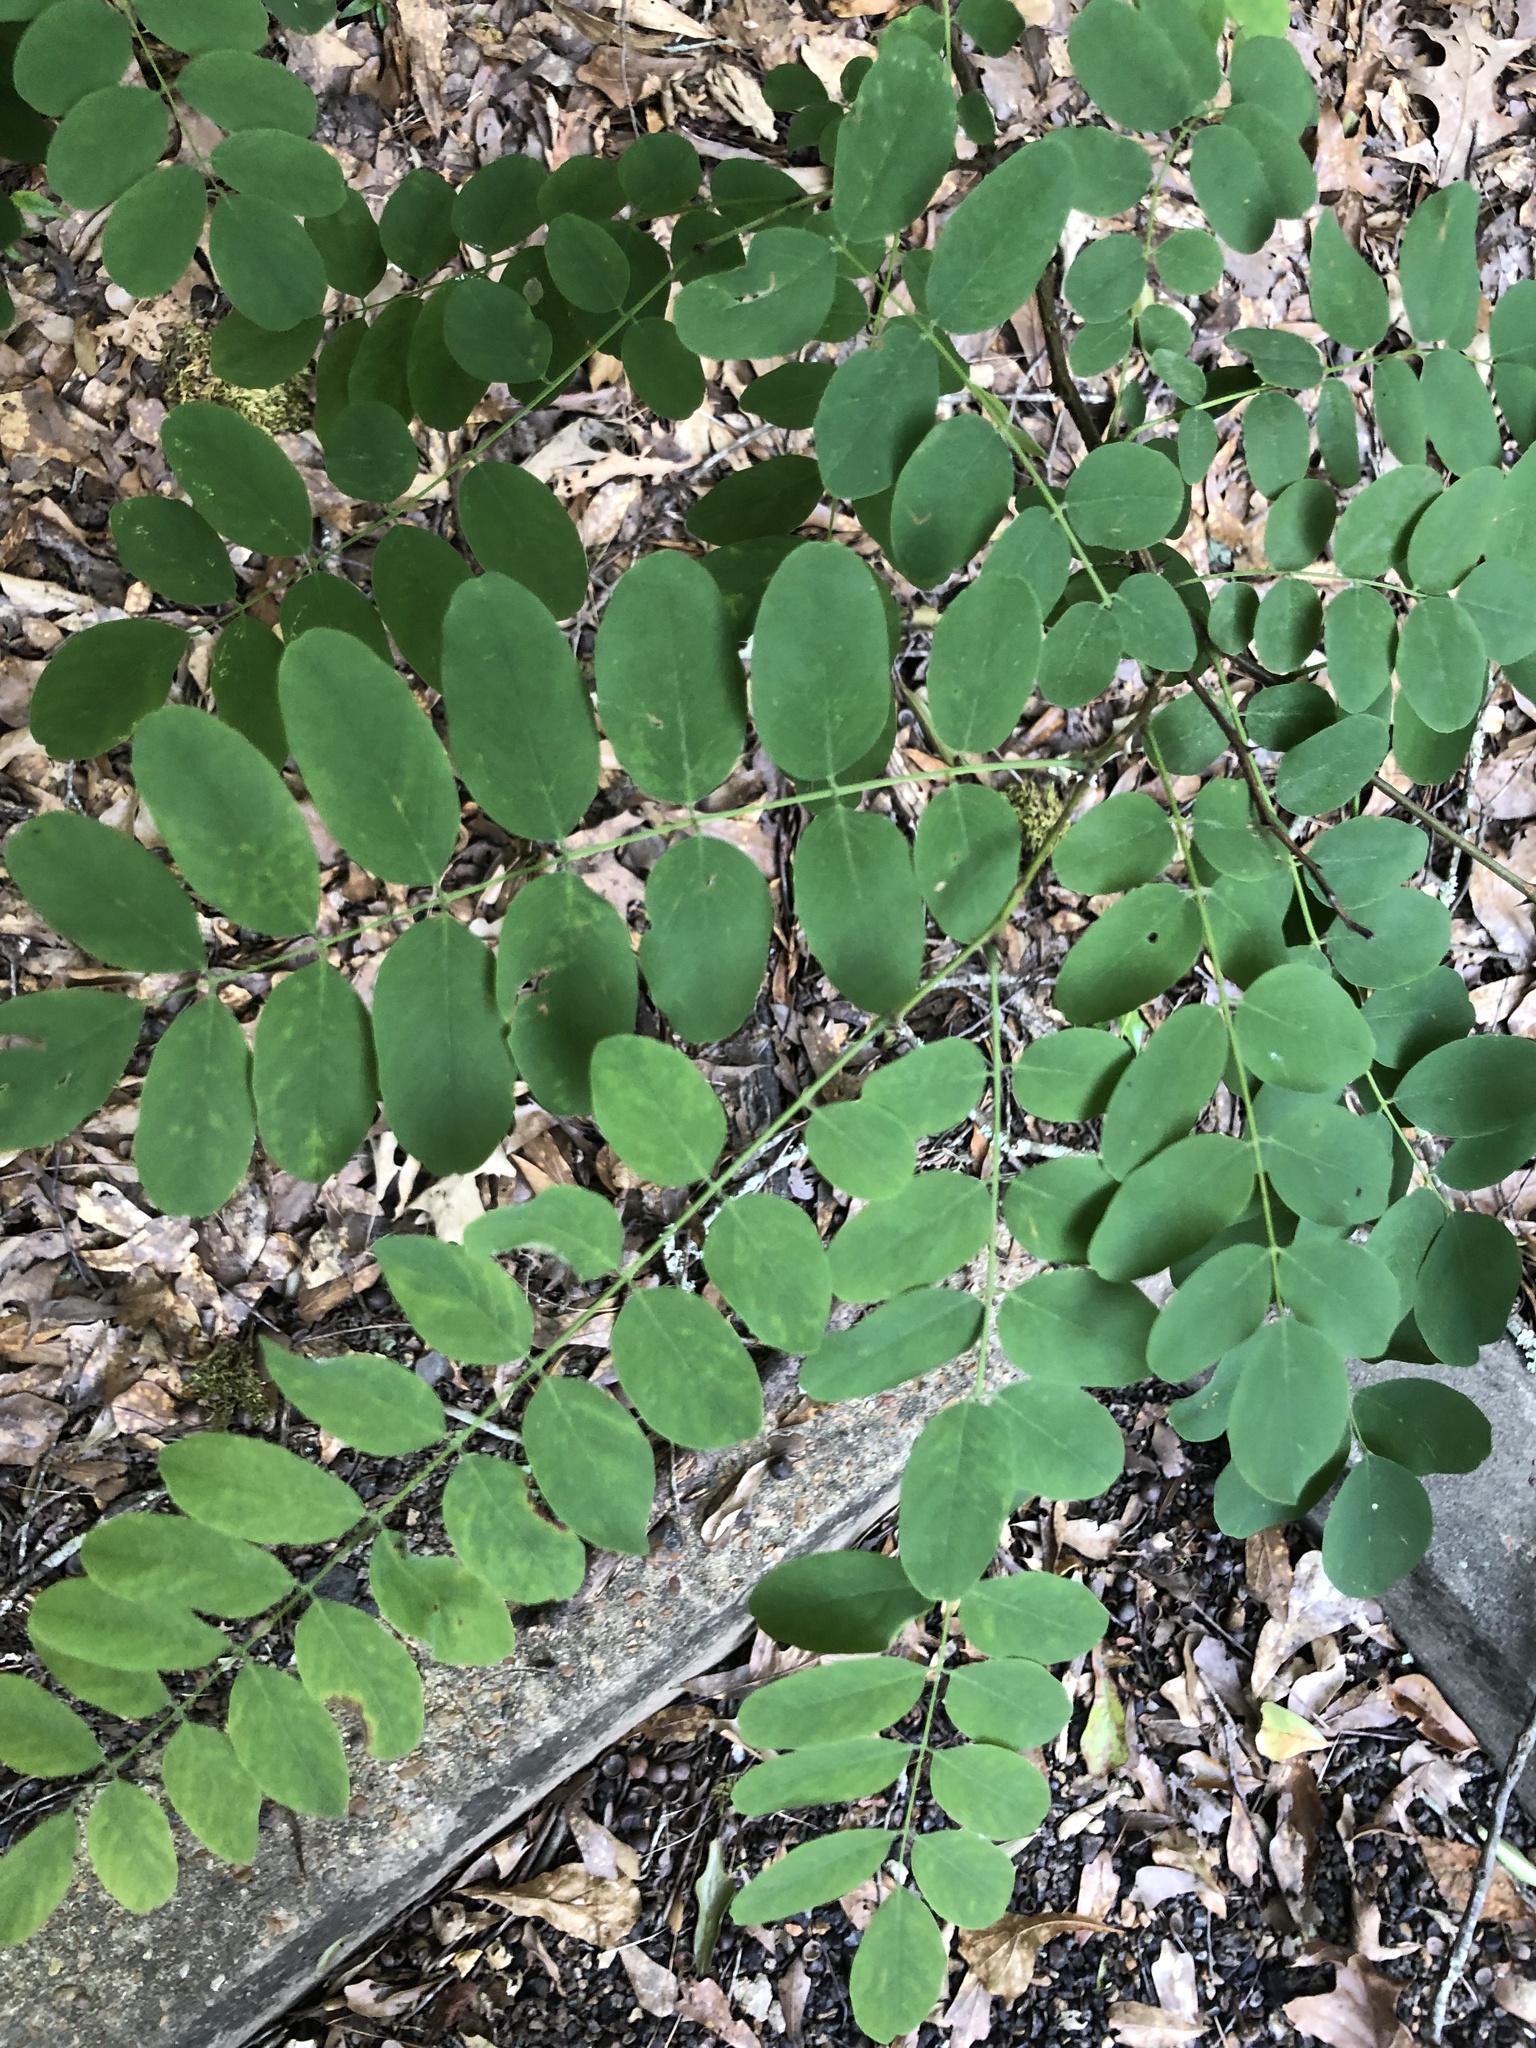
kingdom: Plantae
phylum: Tracheophyta
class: Magnoliopsida
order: Fabales
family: Fabaceae
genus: Robinia
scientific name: Robinia pseudoacacia
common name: Black locust
